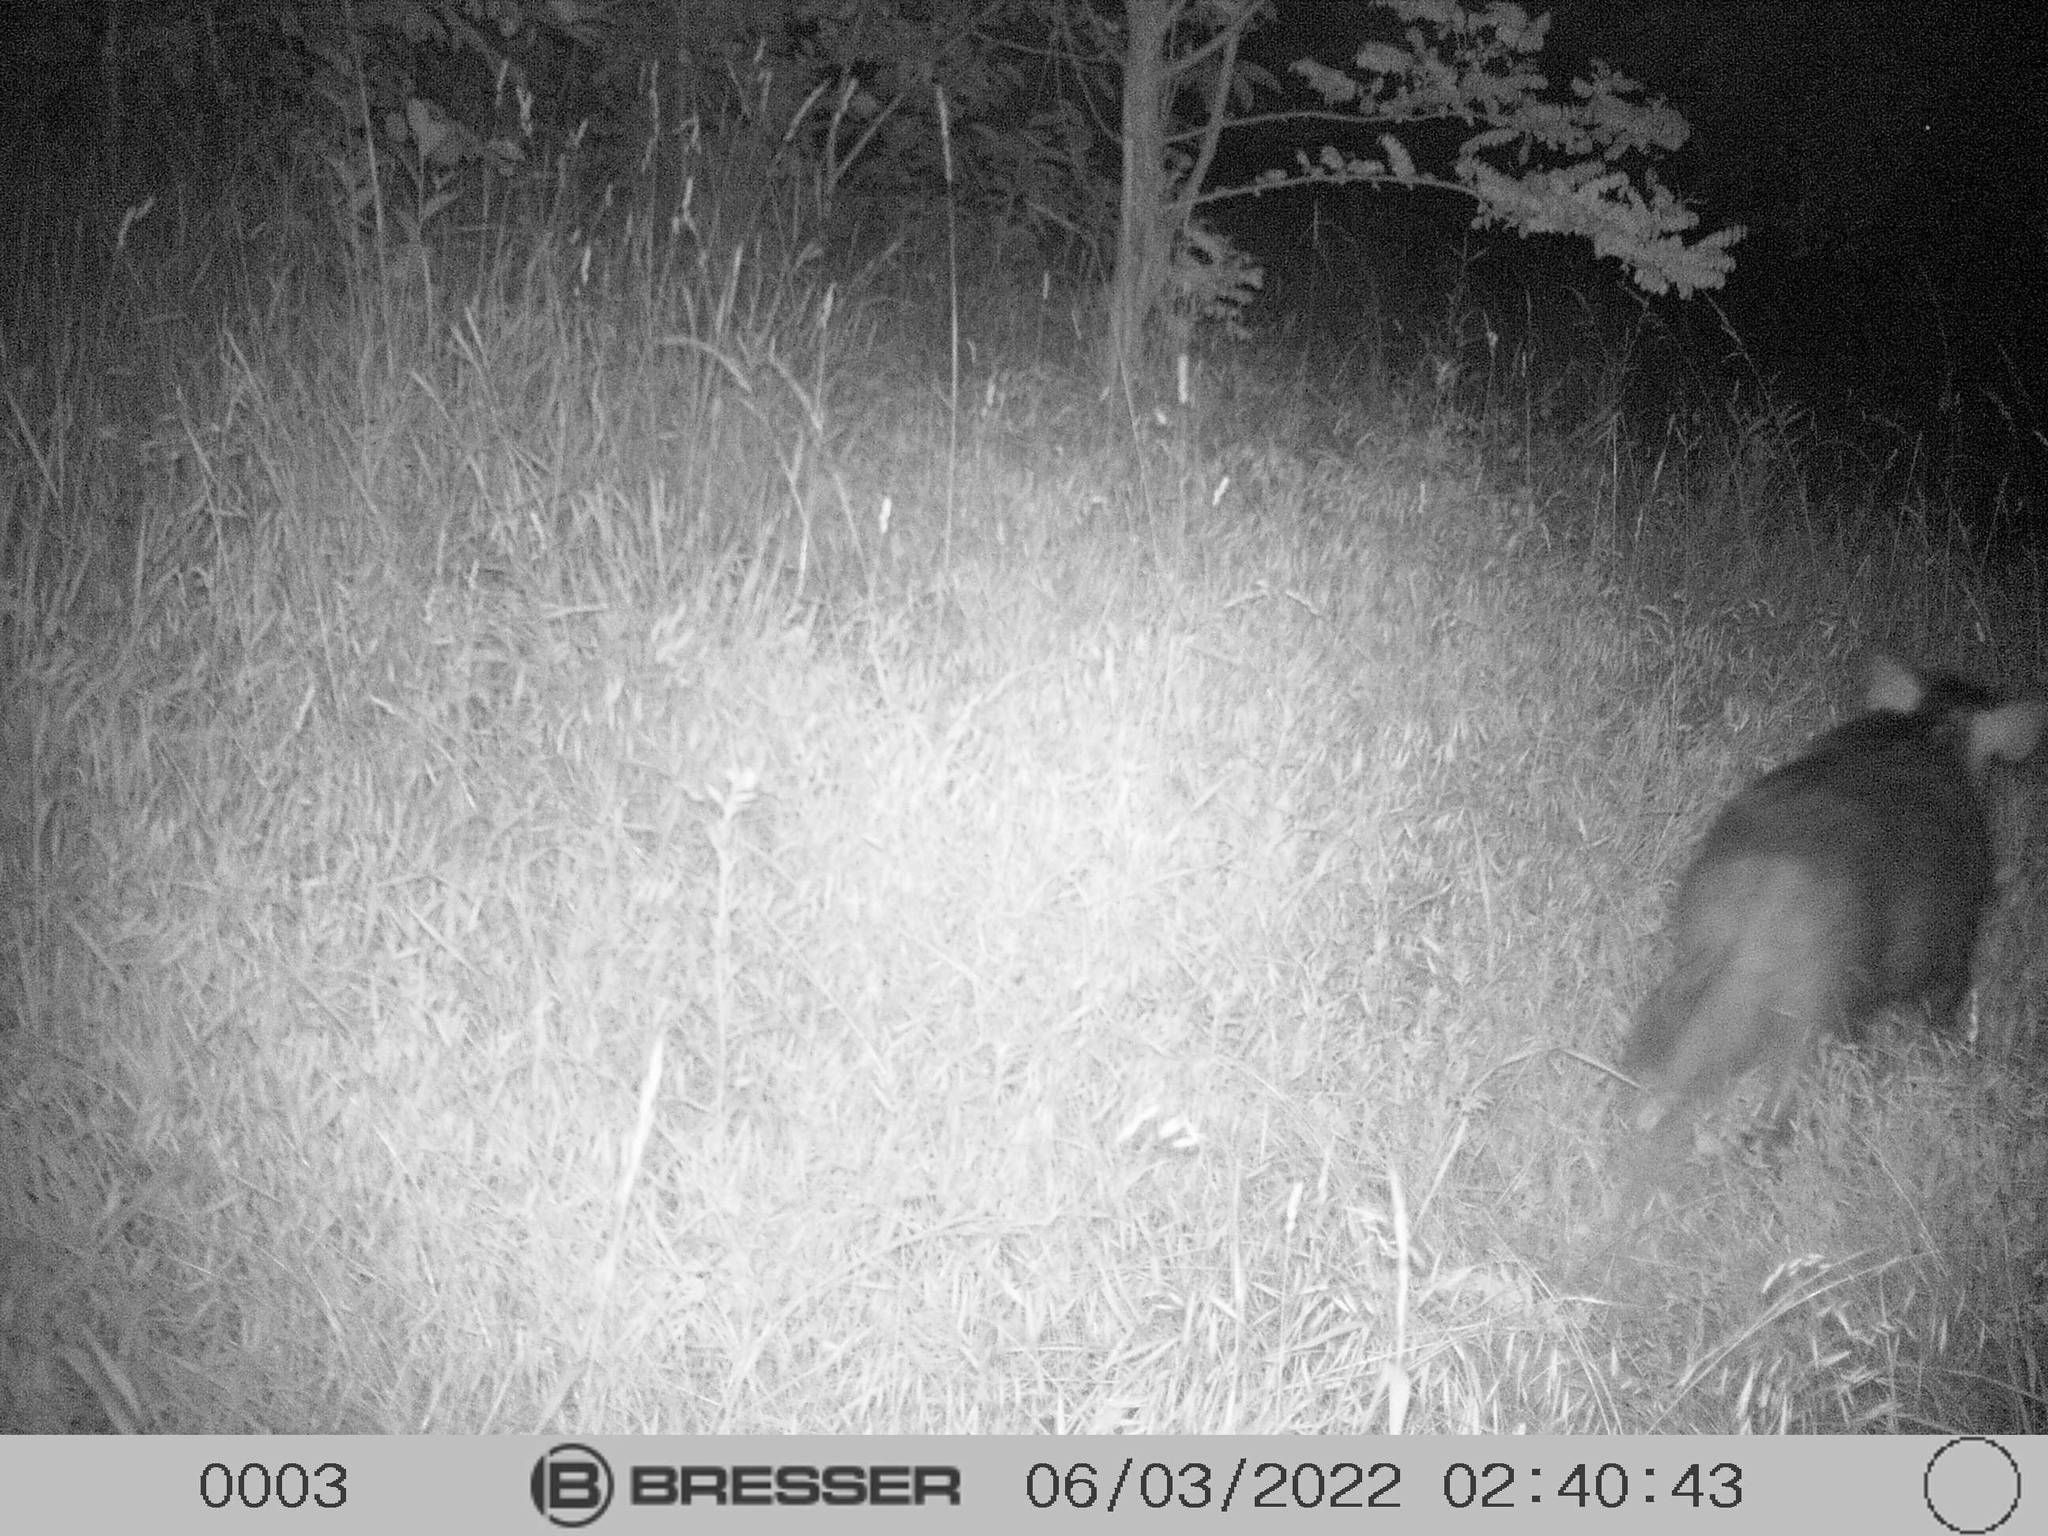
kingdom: Animalia
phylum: Chordata
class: Mammalia
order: Artiodactyla
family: Suidae
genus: Sus
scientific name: Sus scrofa
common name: Wild boar
